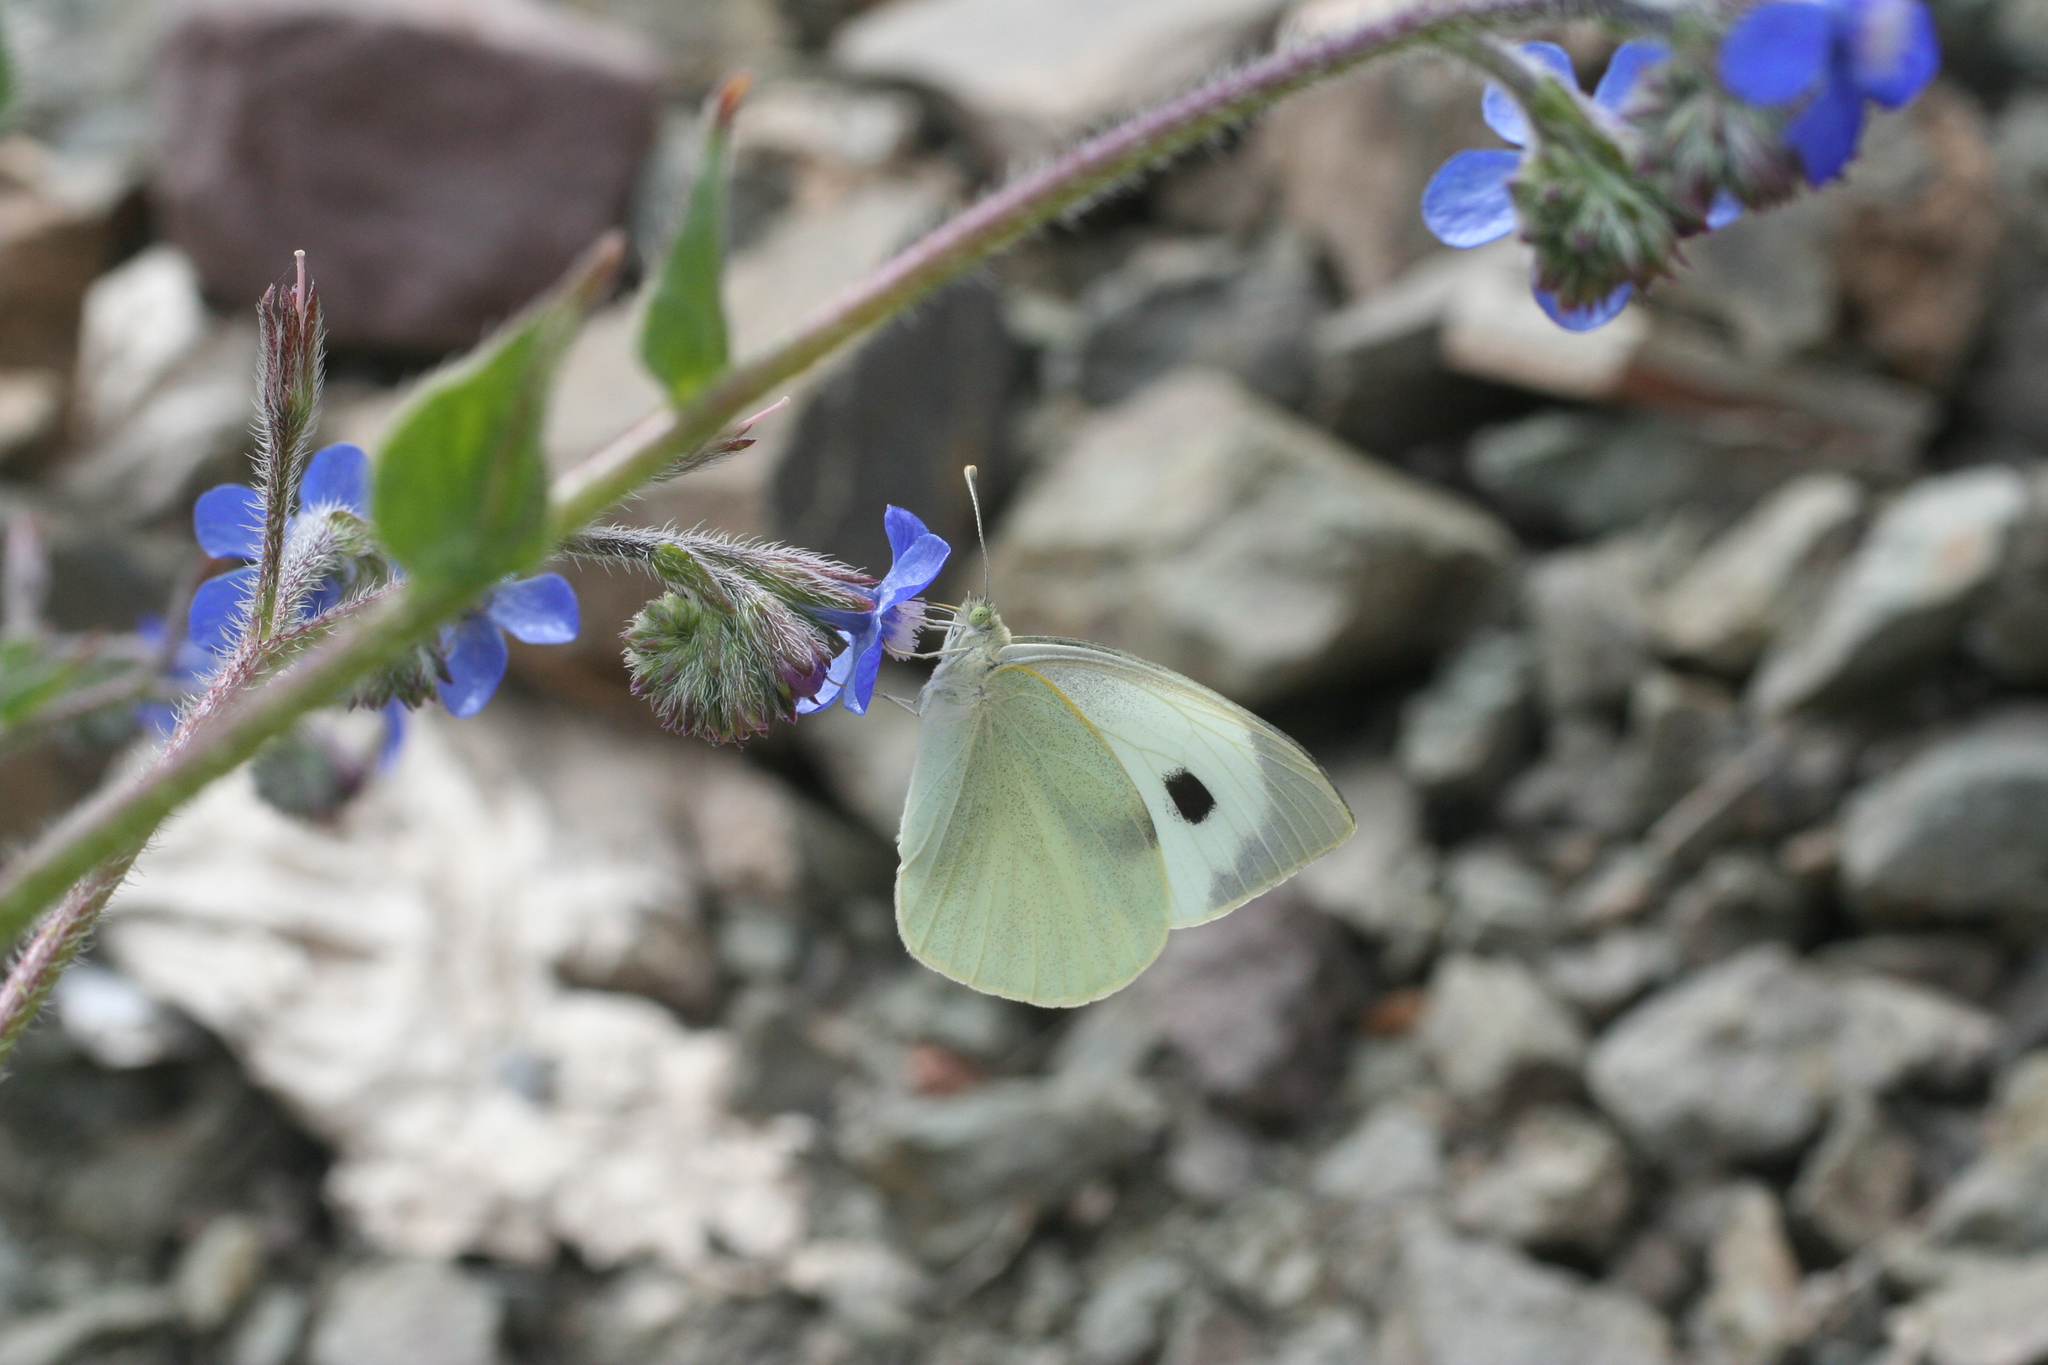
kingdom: Animalia
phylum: Arthropoda
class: Insecta
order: Lepidoptera
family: Pieridae
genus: Pieris
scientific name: Pieris brassicae
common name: Large white
